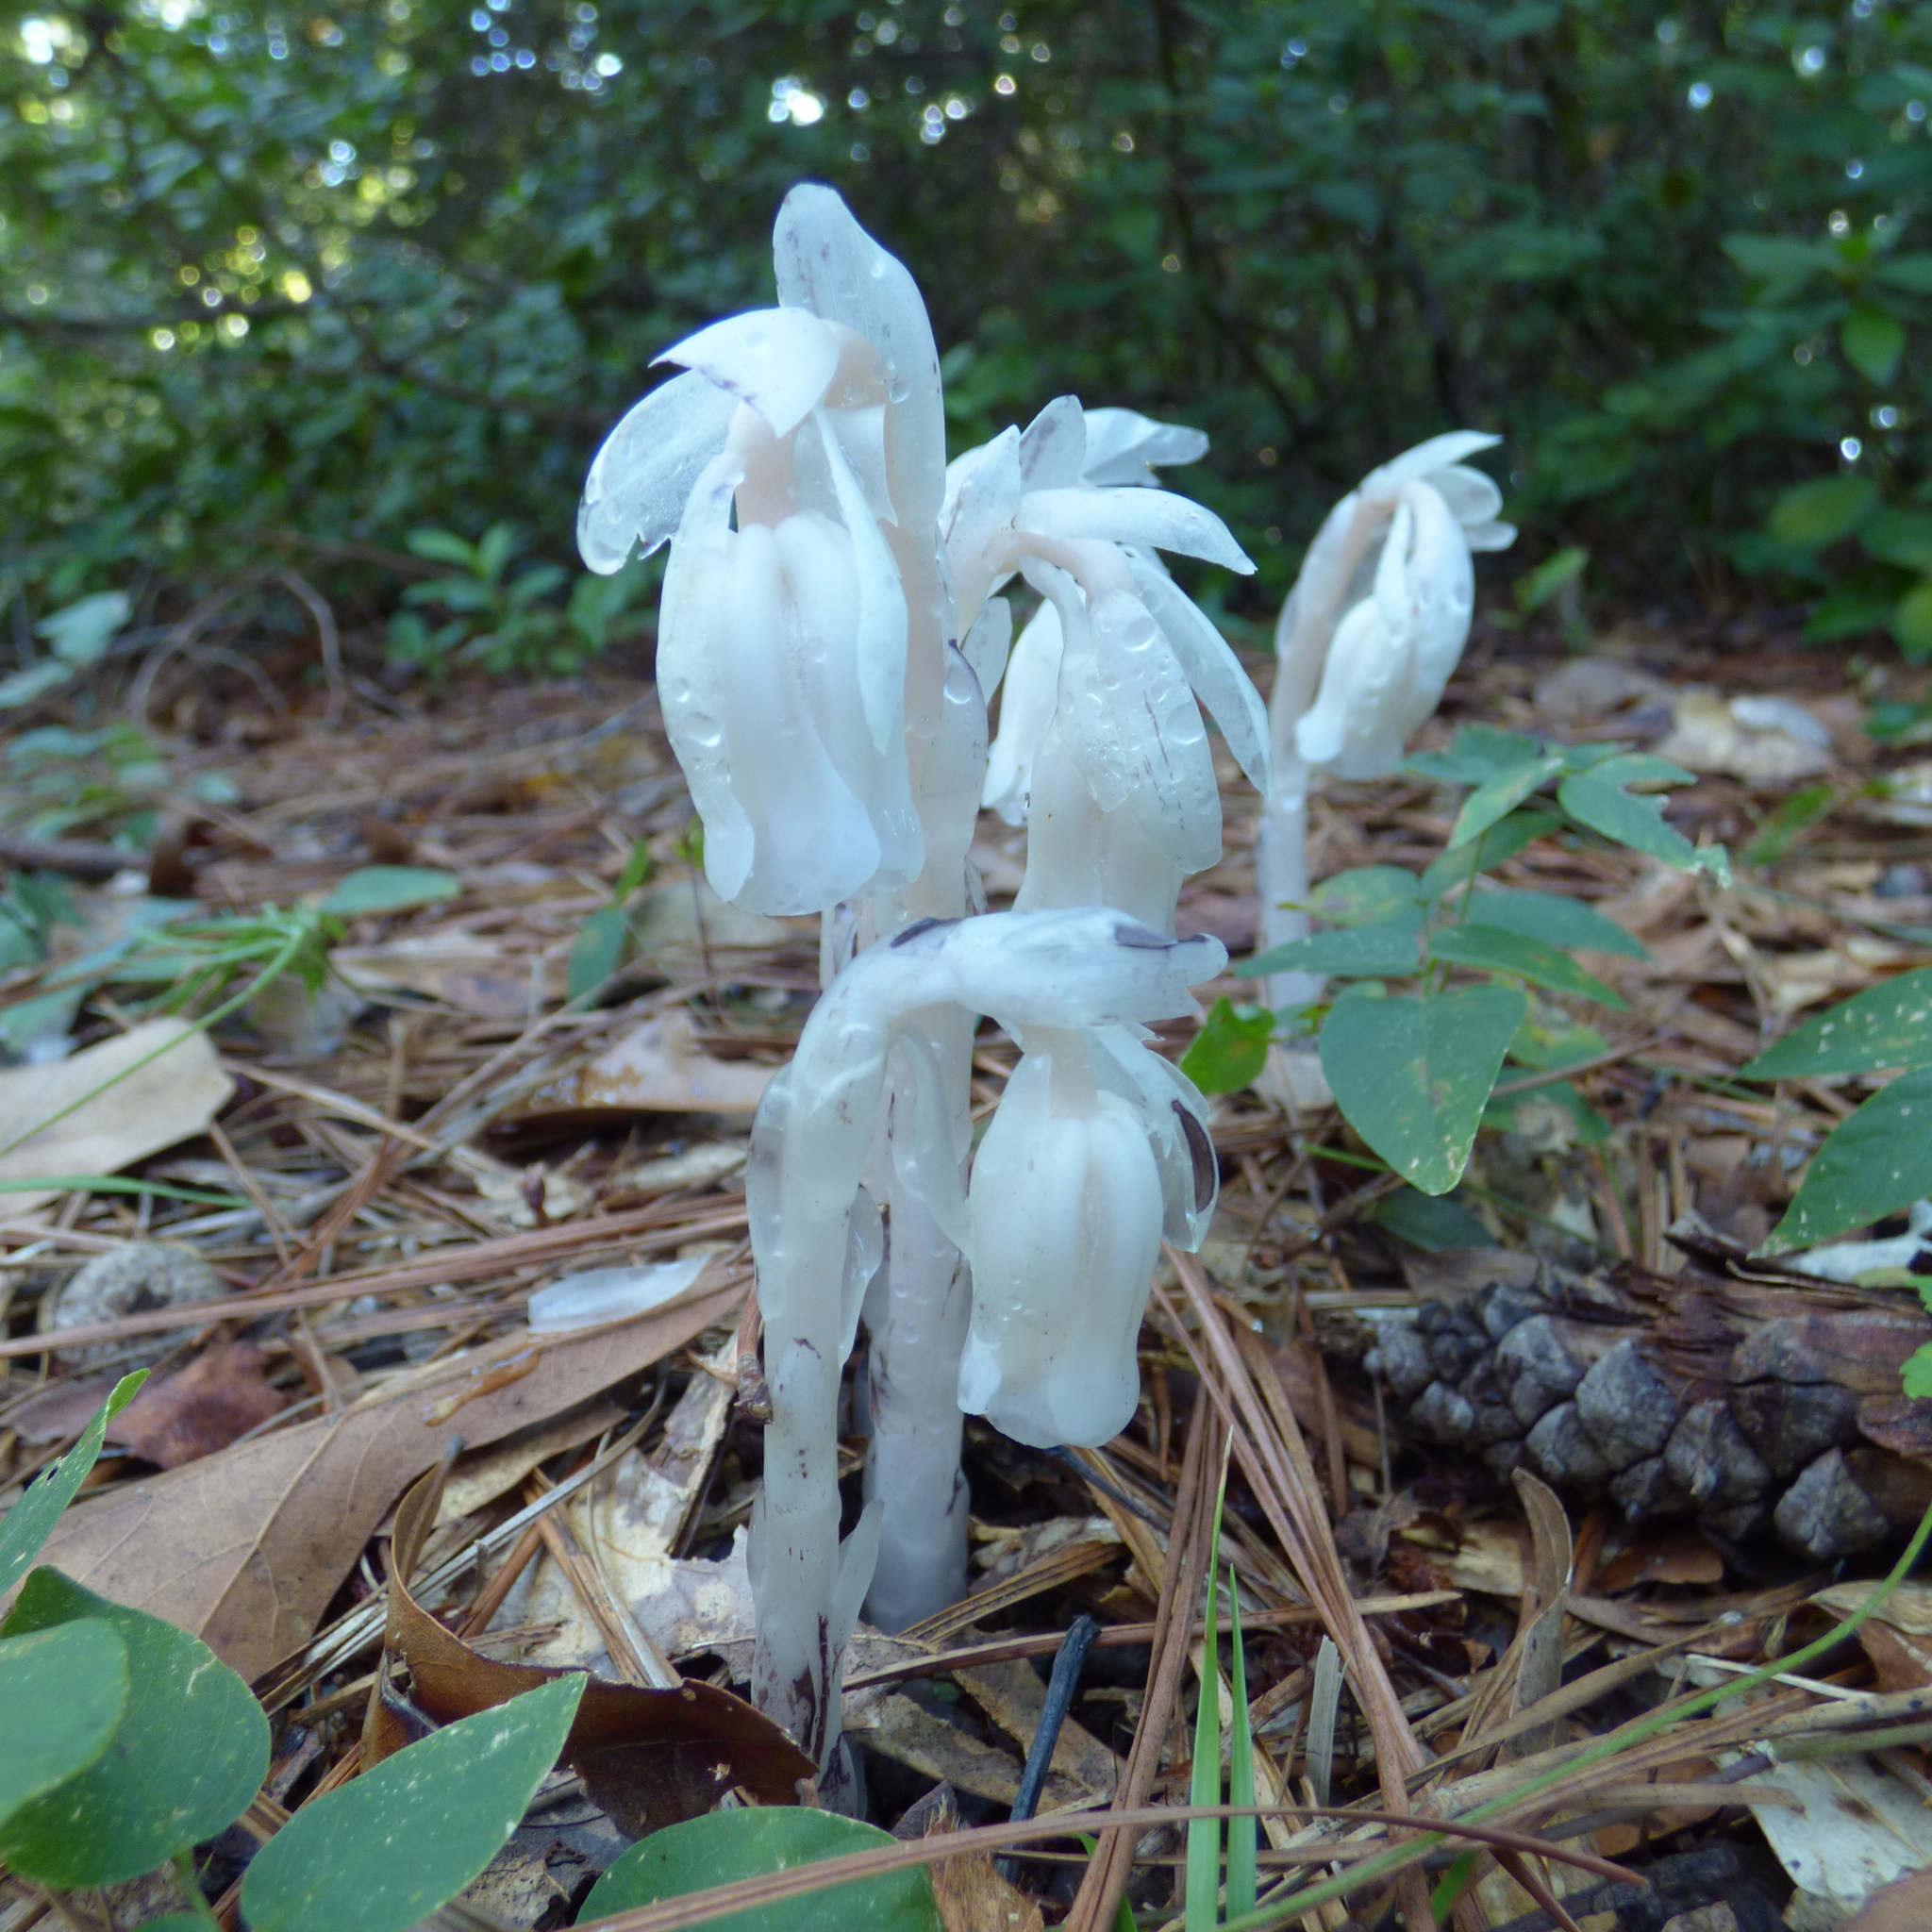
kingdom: Plantae
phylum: Tracheophyta
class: Magnoliopsida
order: Ericales
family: Ericaceae
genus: Monotropa
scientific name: Monotropa uniflora
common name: Convulsion root
